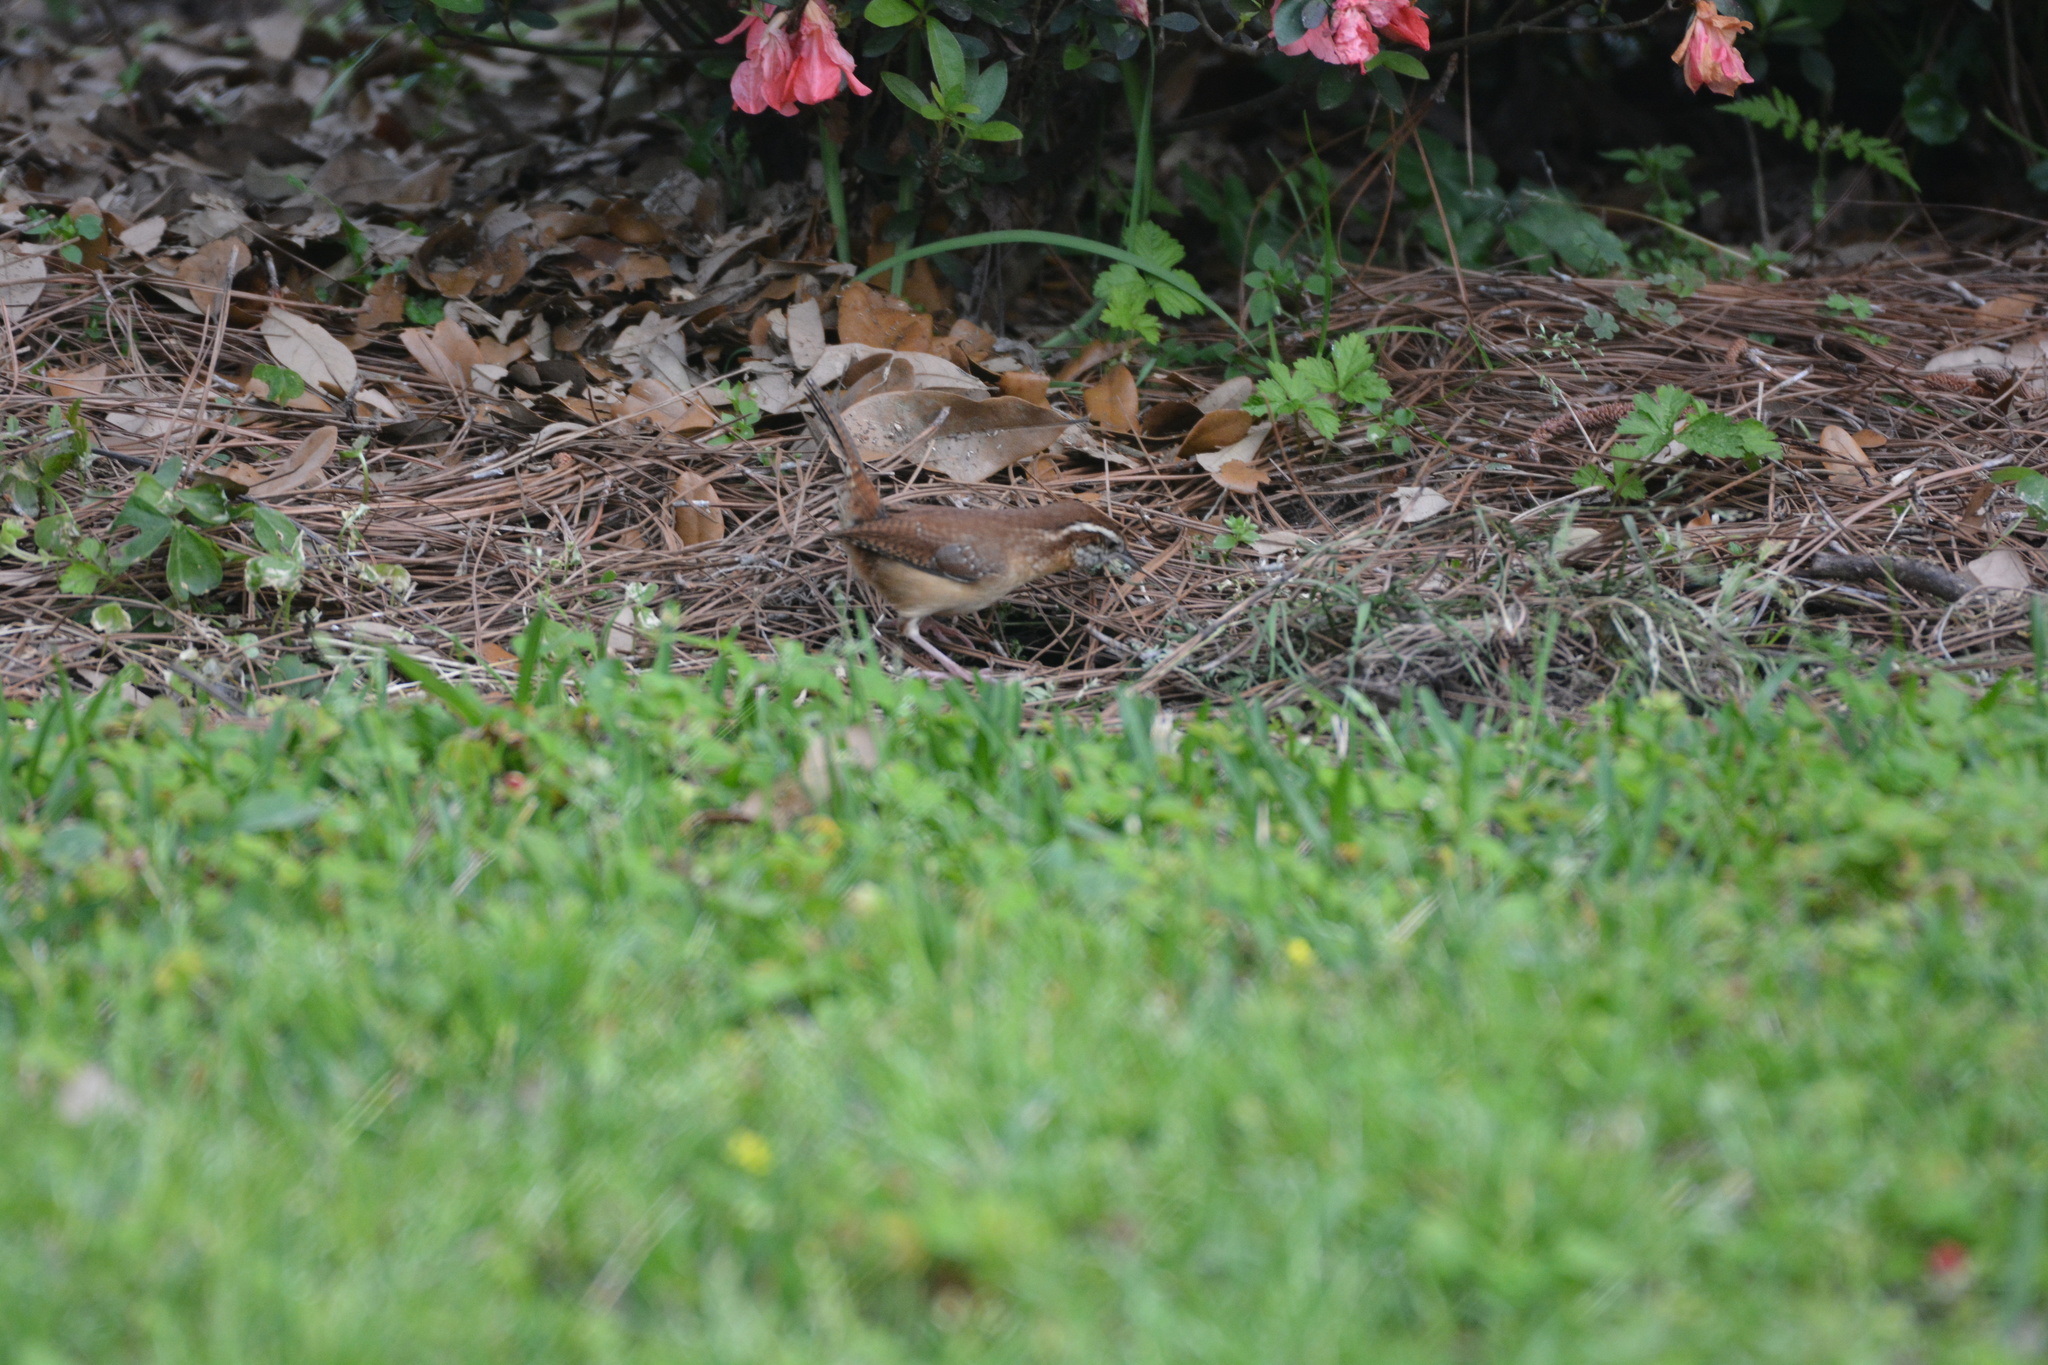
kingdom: Animalia
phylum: Chordata
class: Aves
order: Passeriformes
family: Troglodytidae
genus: Thryothorus
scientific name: Thryothorus ludovicianus
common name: Carolina wren
